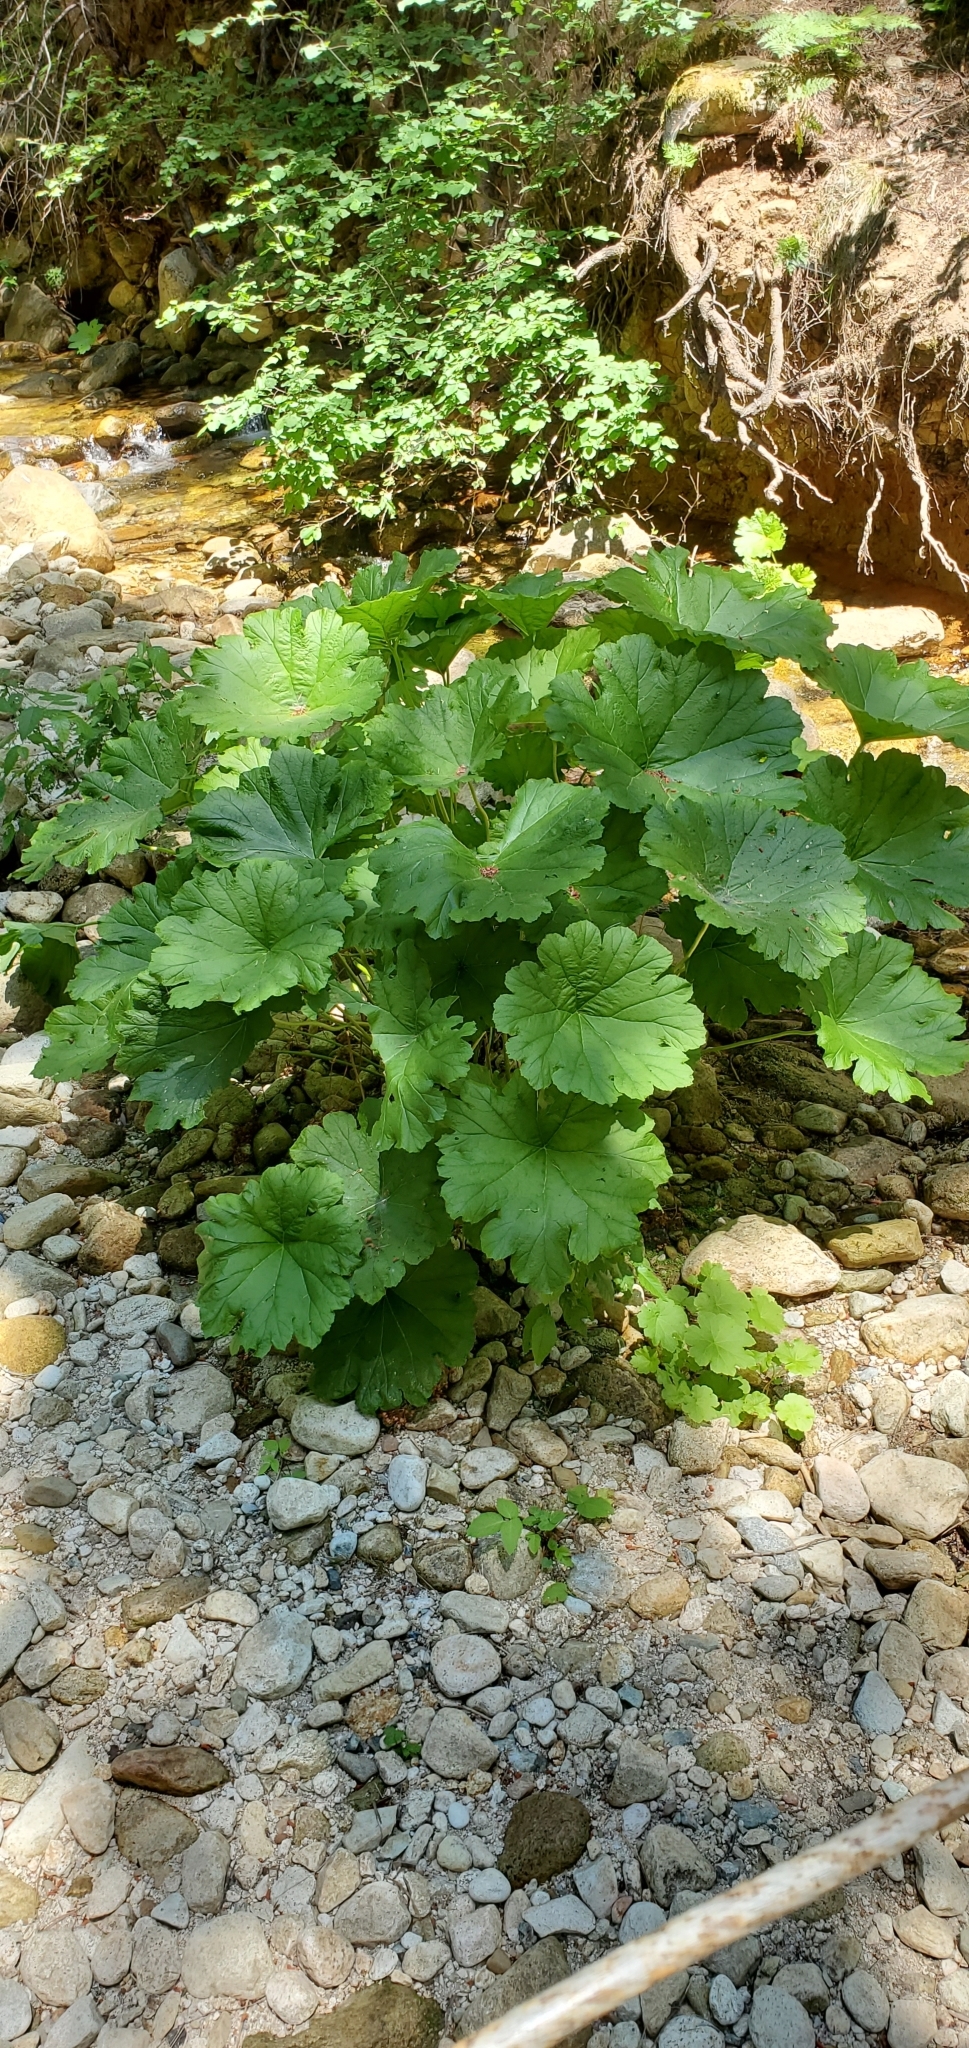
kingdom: Plantae
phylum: Tracheophyta
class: Magnoliopsida
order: Saxifragales
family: Saxifragaceae
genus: Darmera
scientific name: Darmera peltata
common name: Indian-rhubarb
